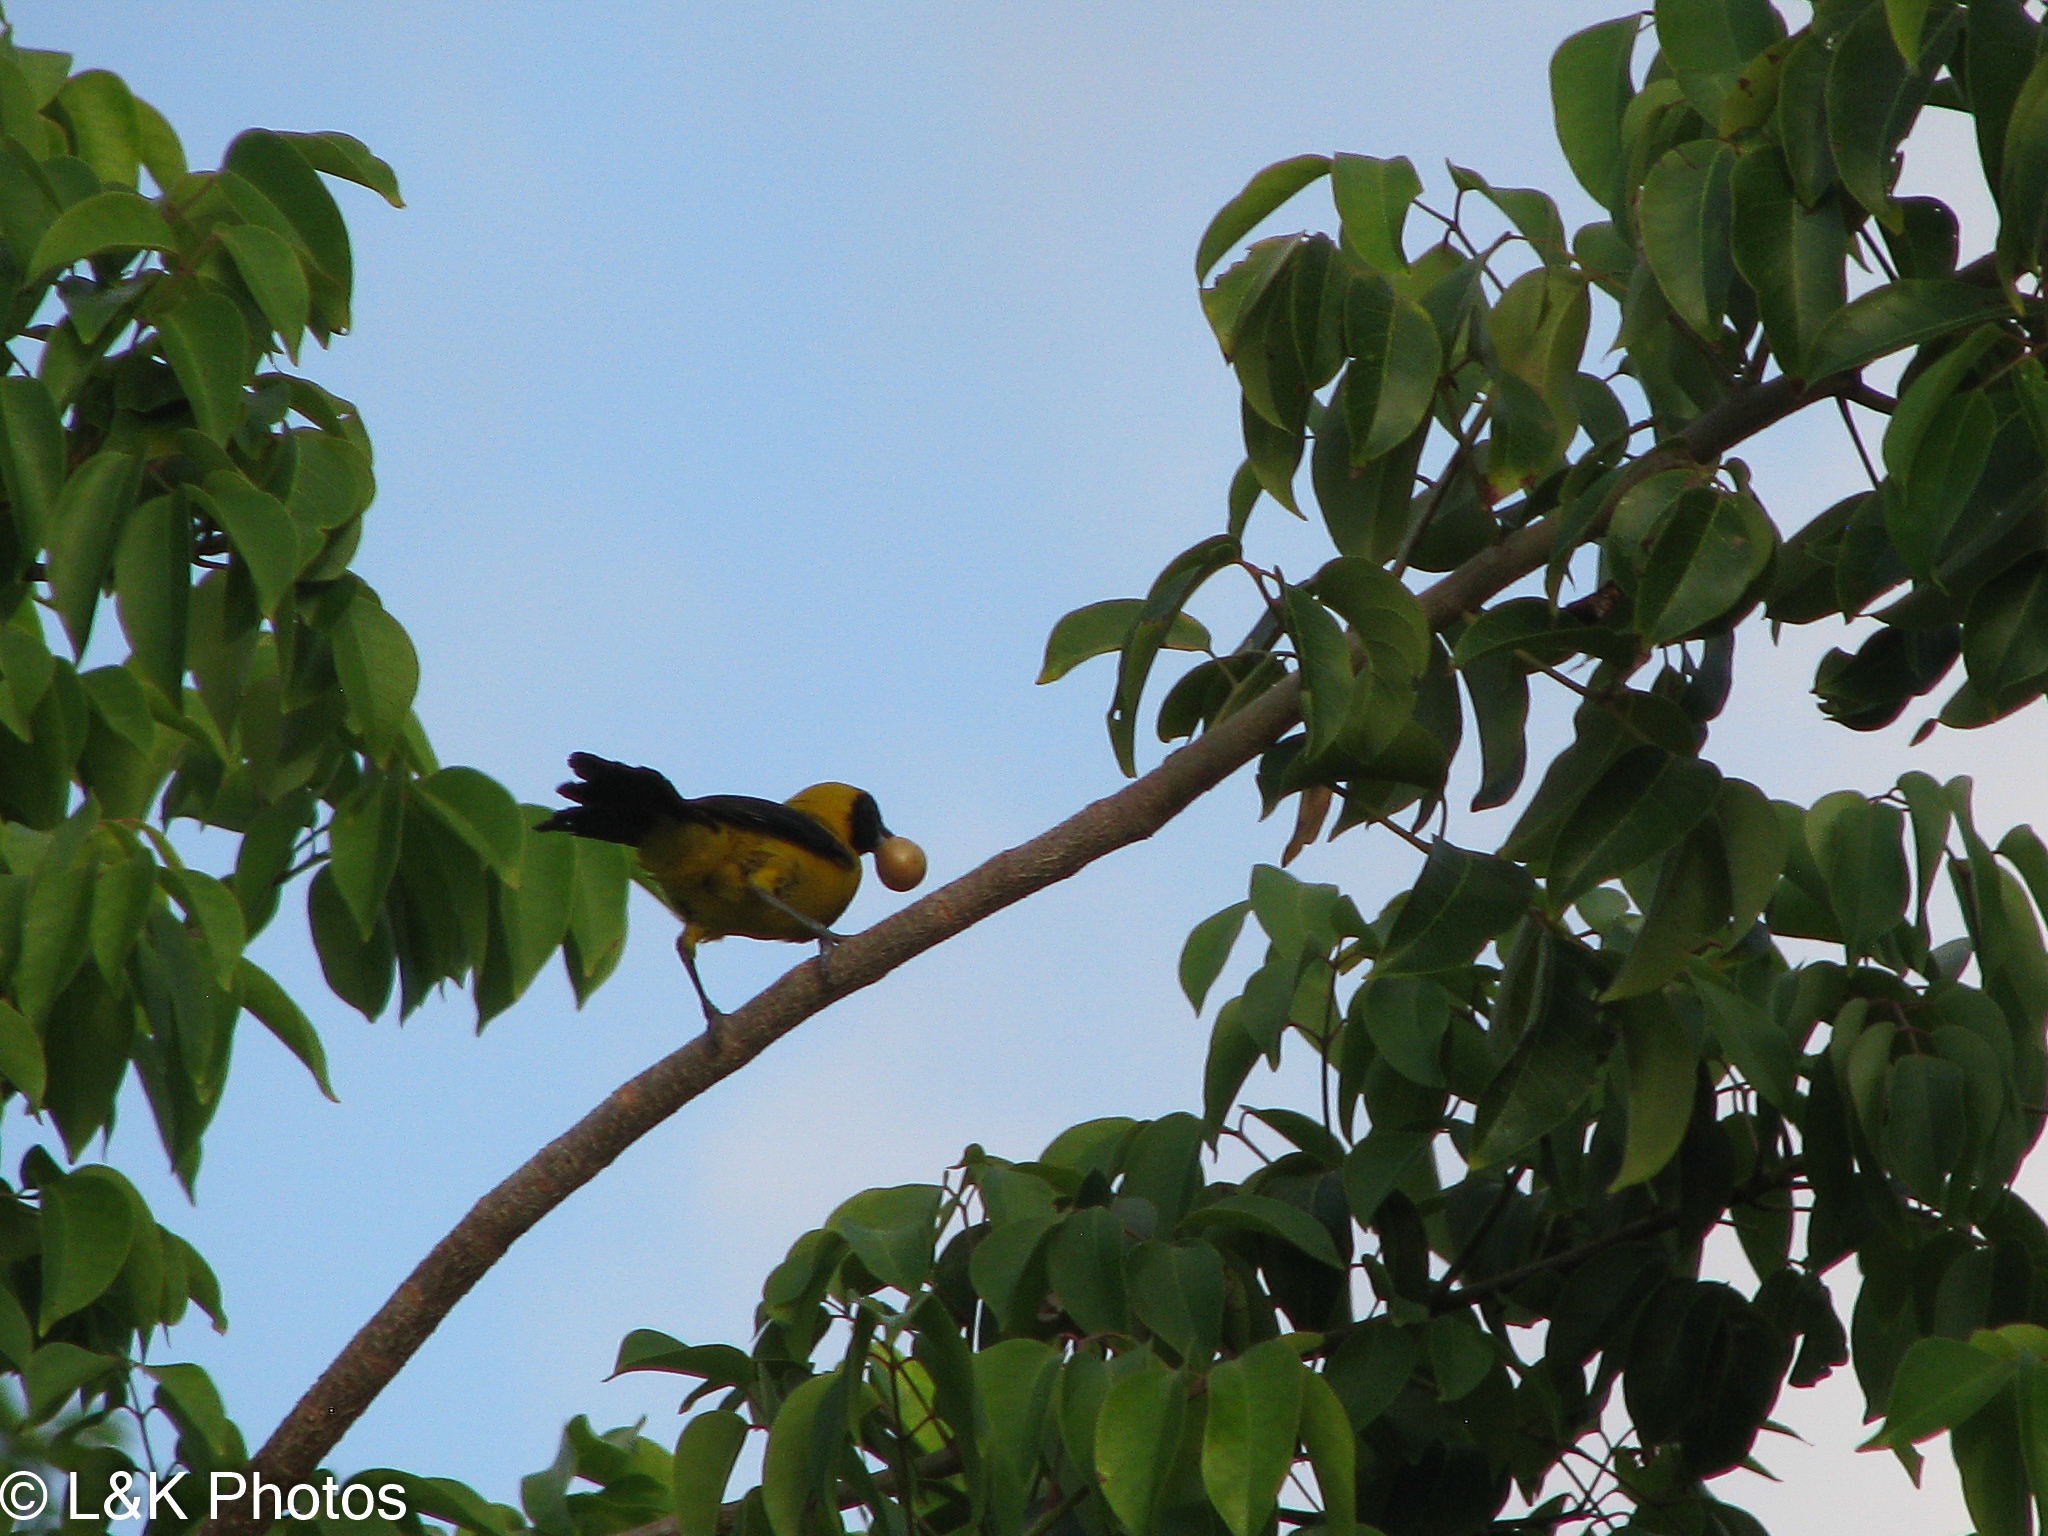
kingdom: Animalia
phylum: Chordata
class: Aves
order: Passeriformes
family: Icteridae
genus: Icterus
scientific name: Icterus chrysater
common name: Yellow-backed oriole
